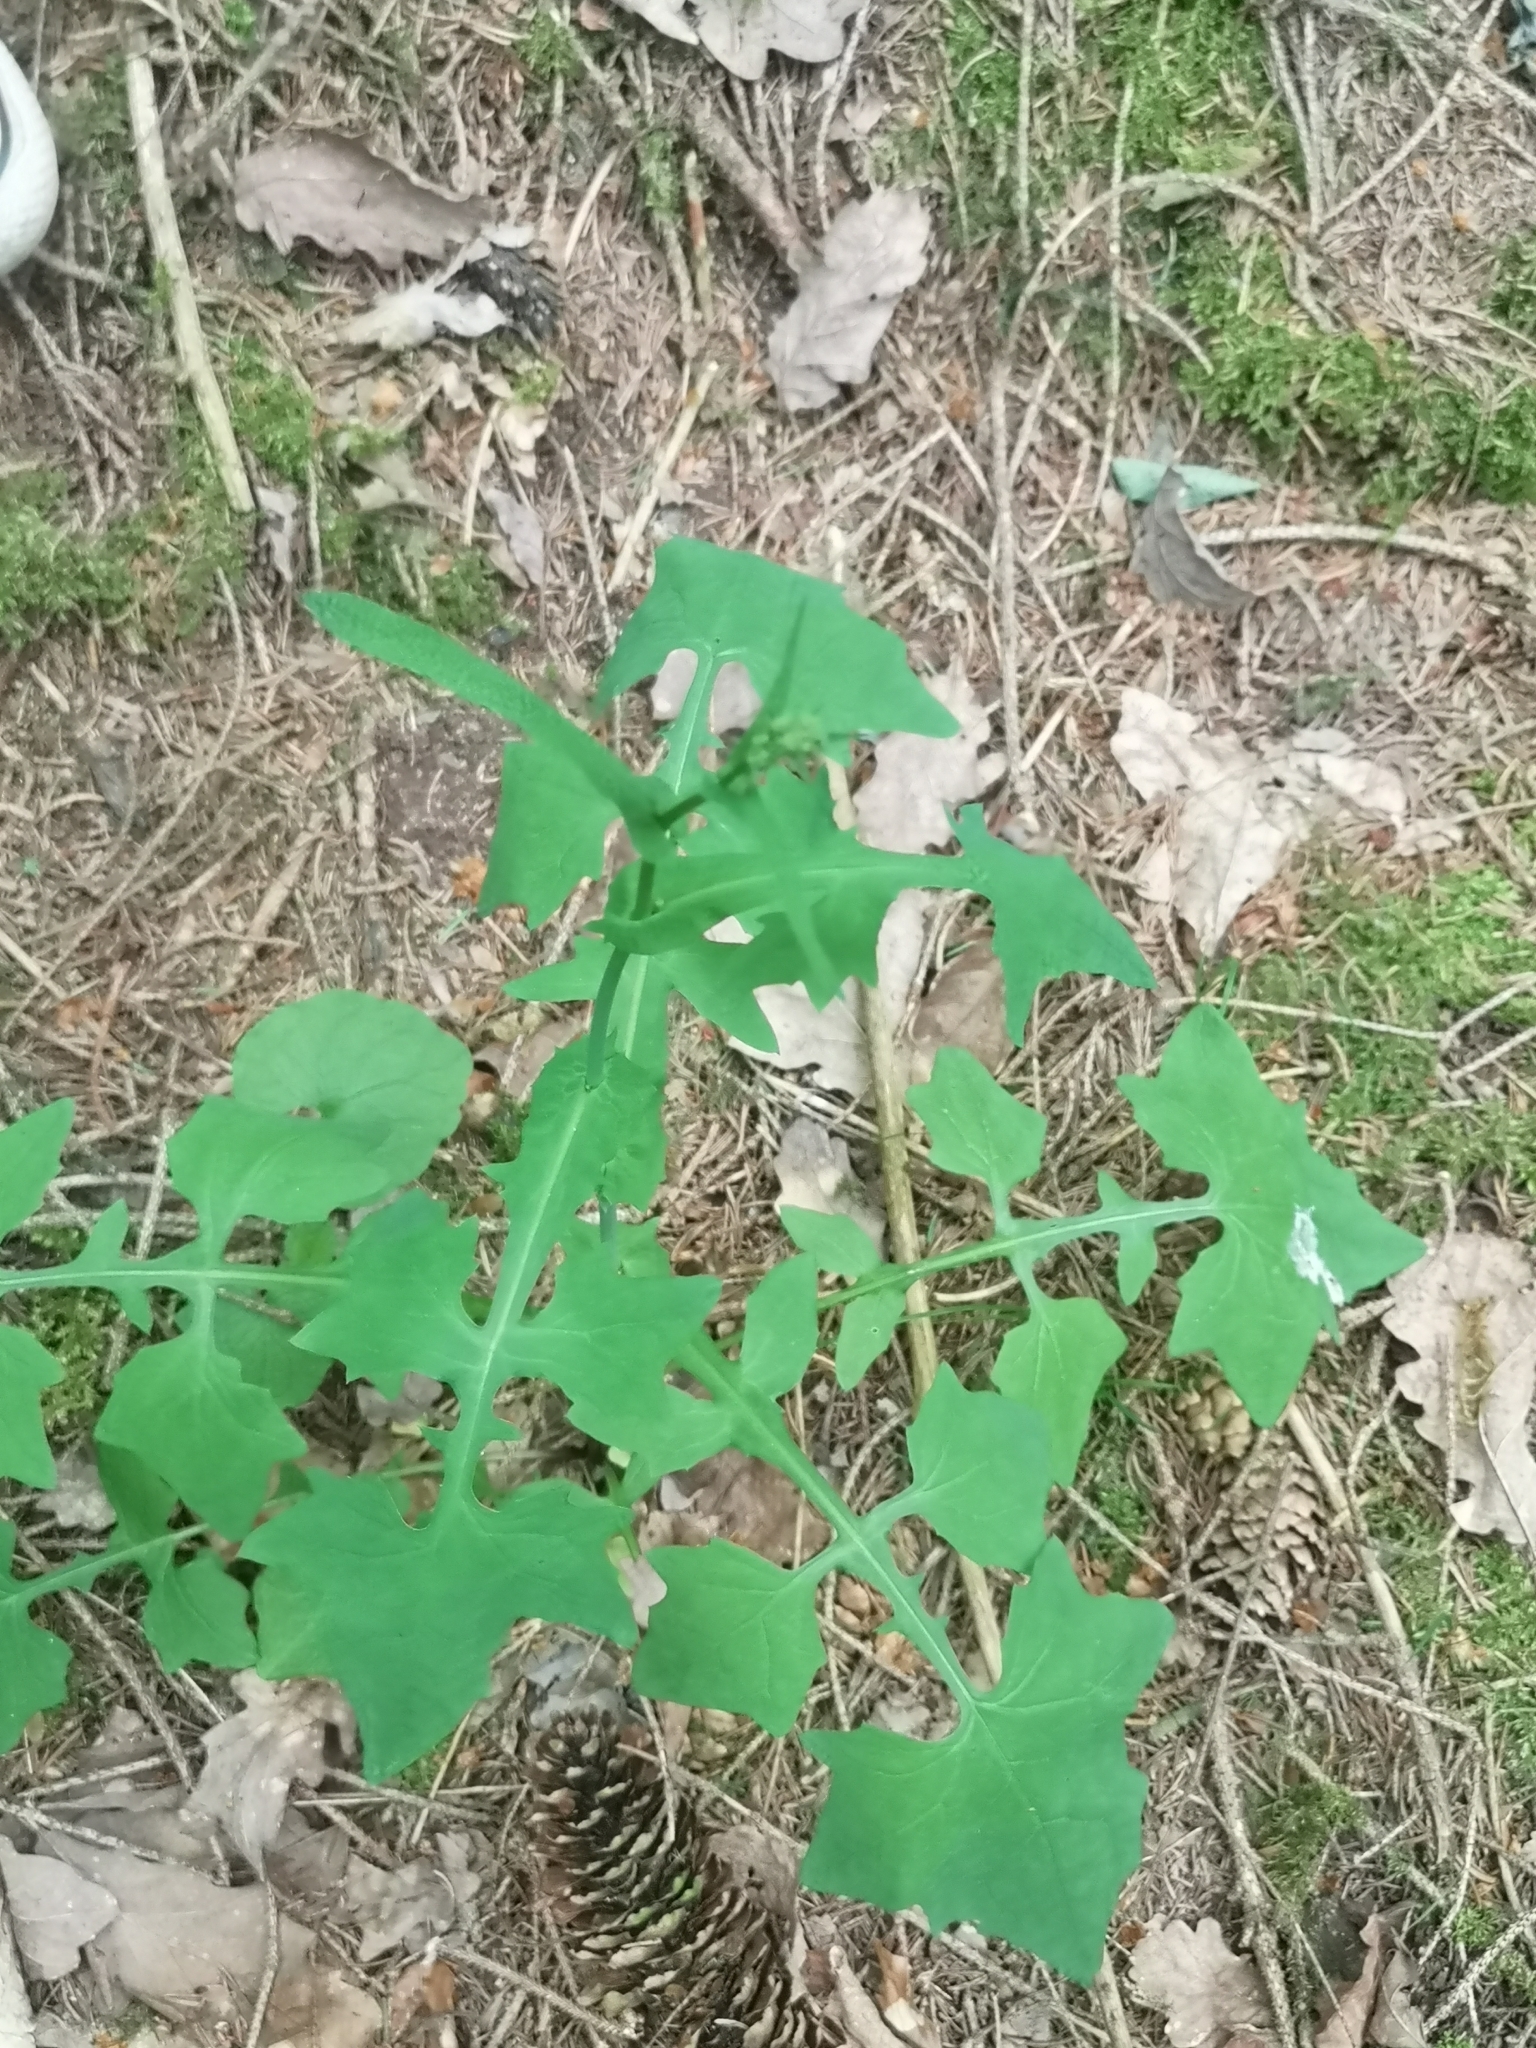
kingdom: Plantae
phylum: Tracheophyta
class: Magnoliopsida
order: Asterales
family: Asteraceae
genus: Mycelis
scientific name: Mycelis muralis
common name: Wall lettuce
